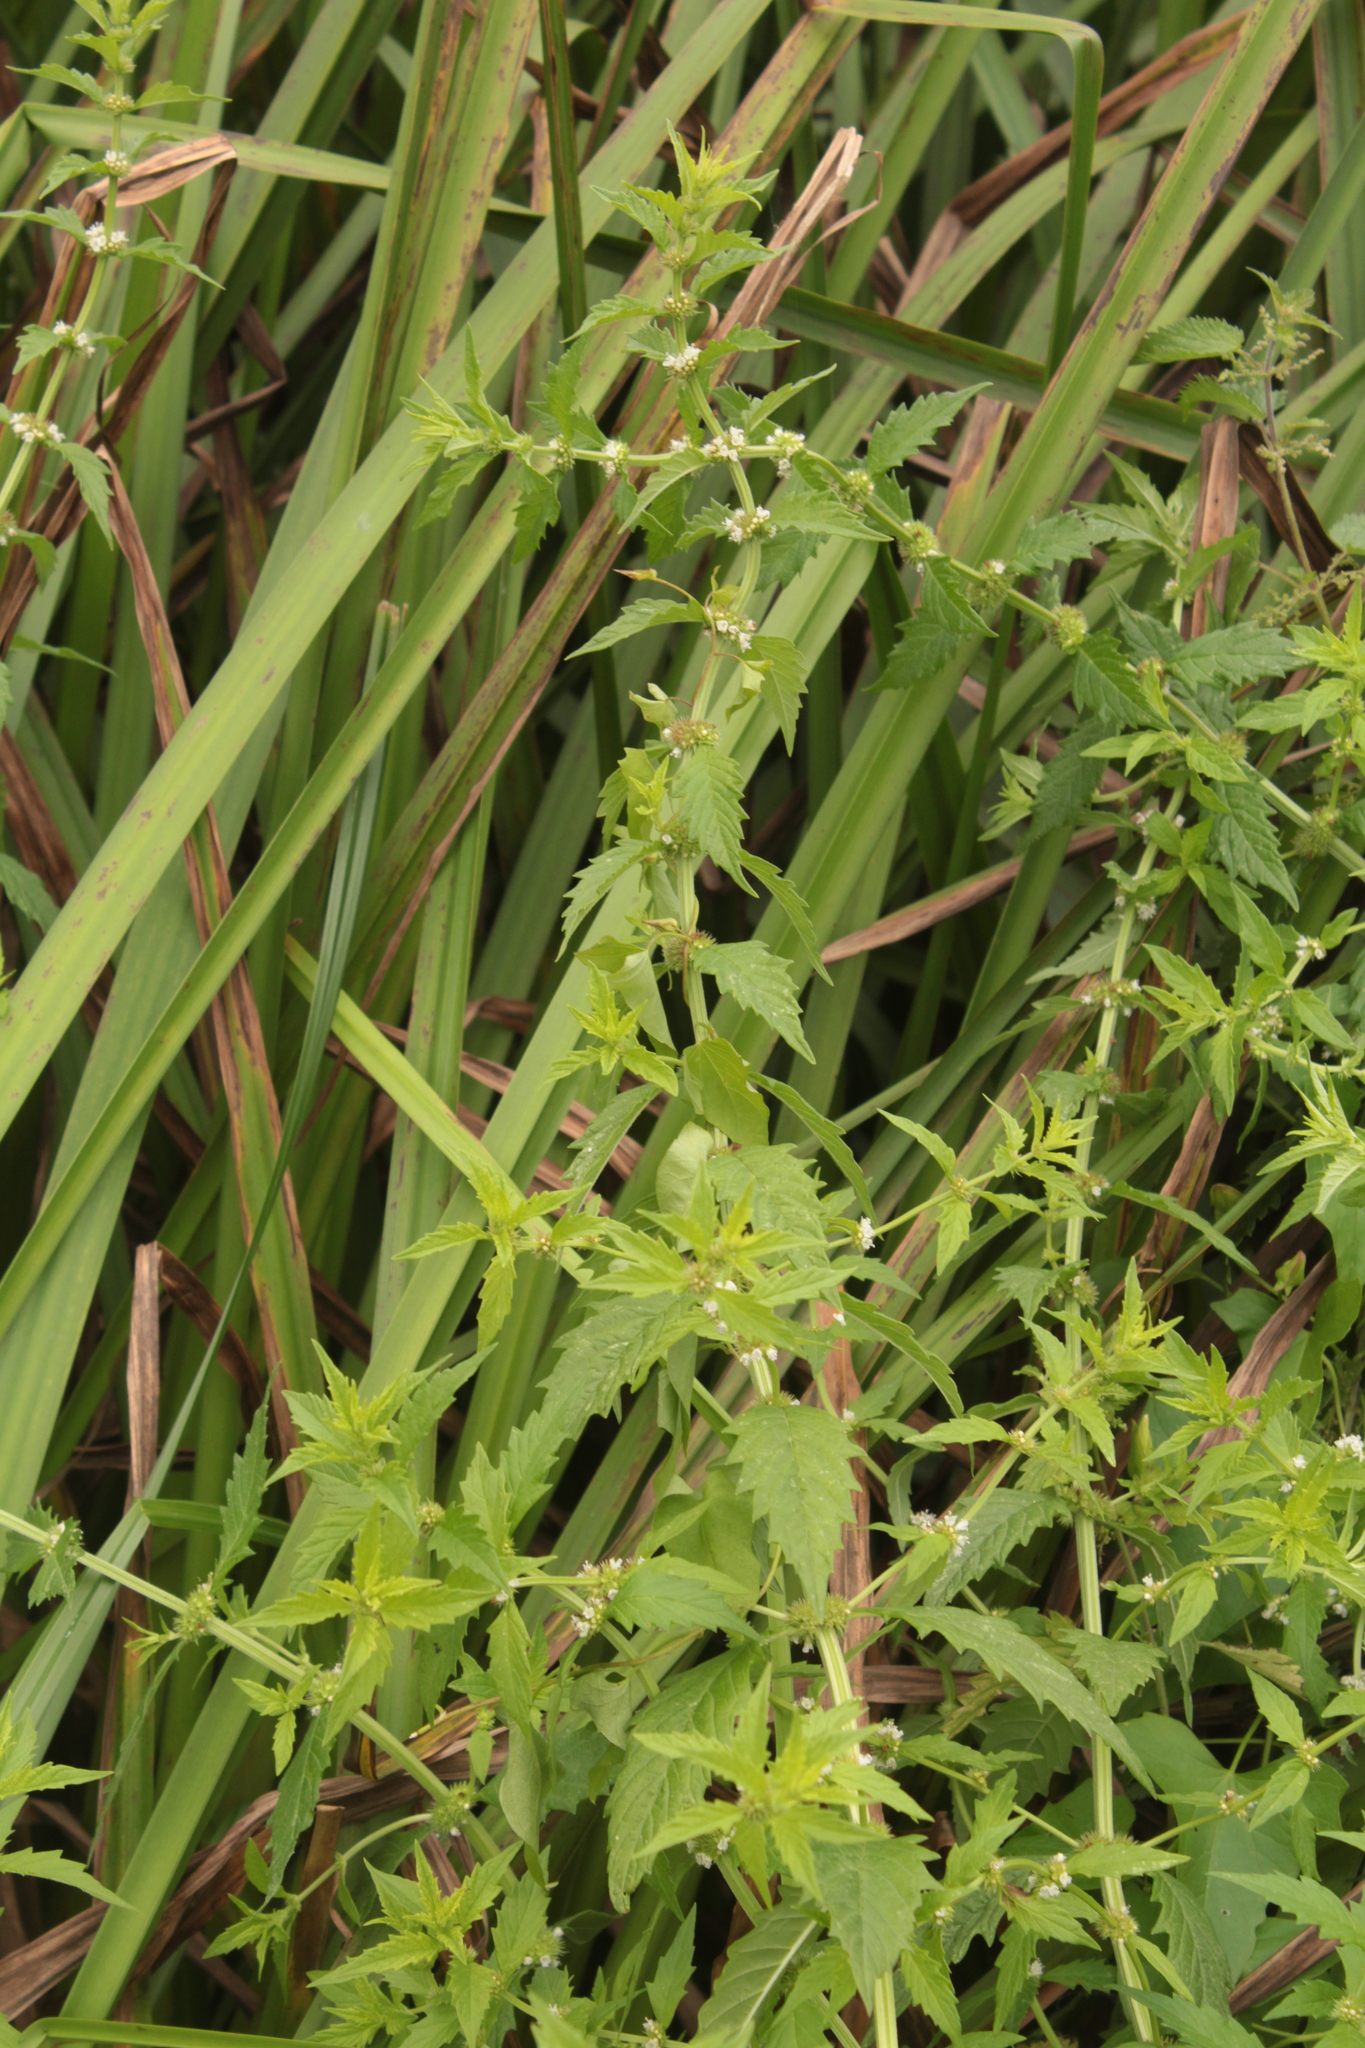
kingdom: Plantae
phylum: Tracheophyta
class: Magnoliopsida
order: Lamiales
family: Lamiaceae
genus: Lycopus
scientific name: Lycopus europaeus
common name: European bugleweed
